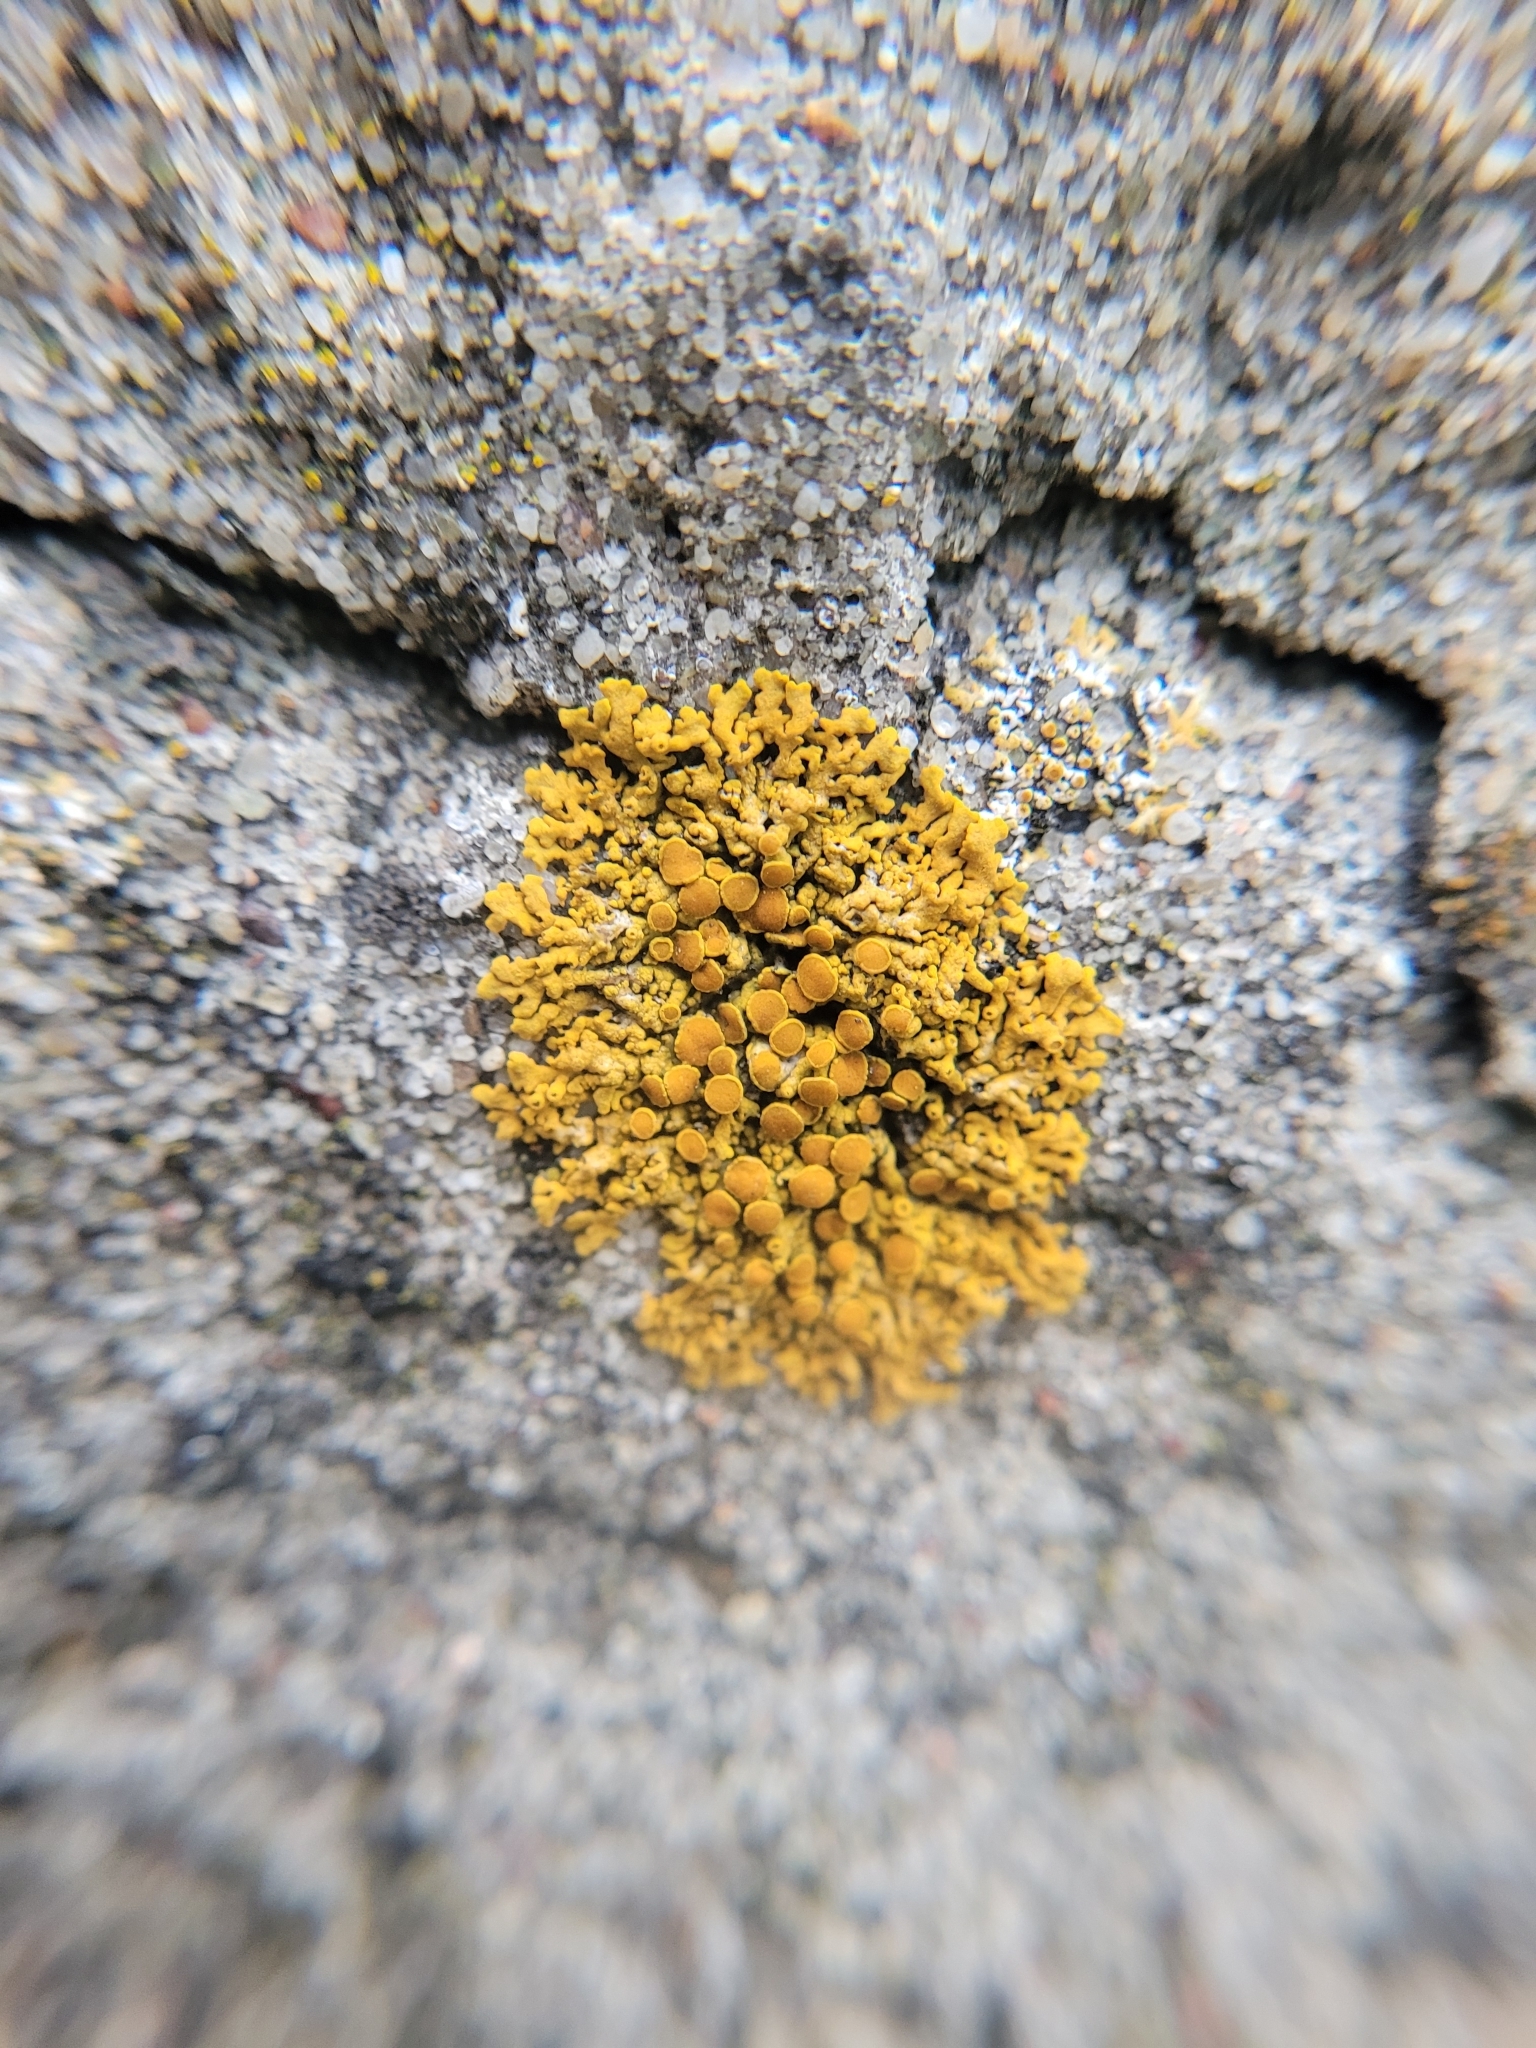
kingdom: Fungi
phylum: Ascomycota
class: Lecanoromycetes
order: Teloschistales
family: Teloschistaceae
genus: Xanthoria
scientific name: Xanthoria elegans
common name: Elegant sunburst lichen
